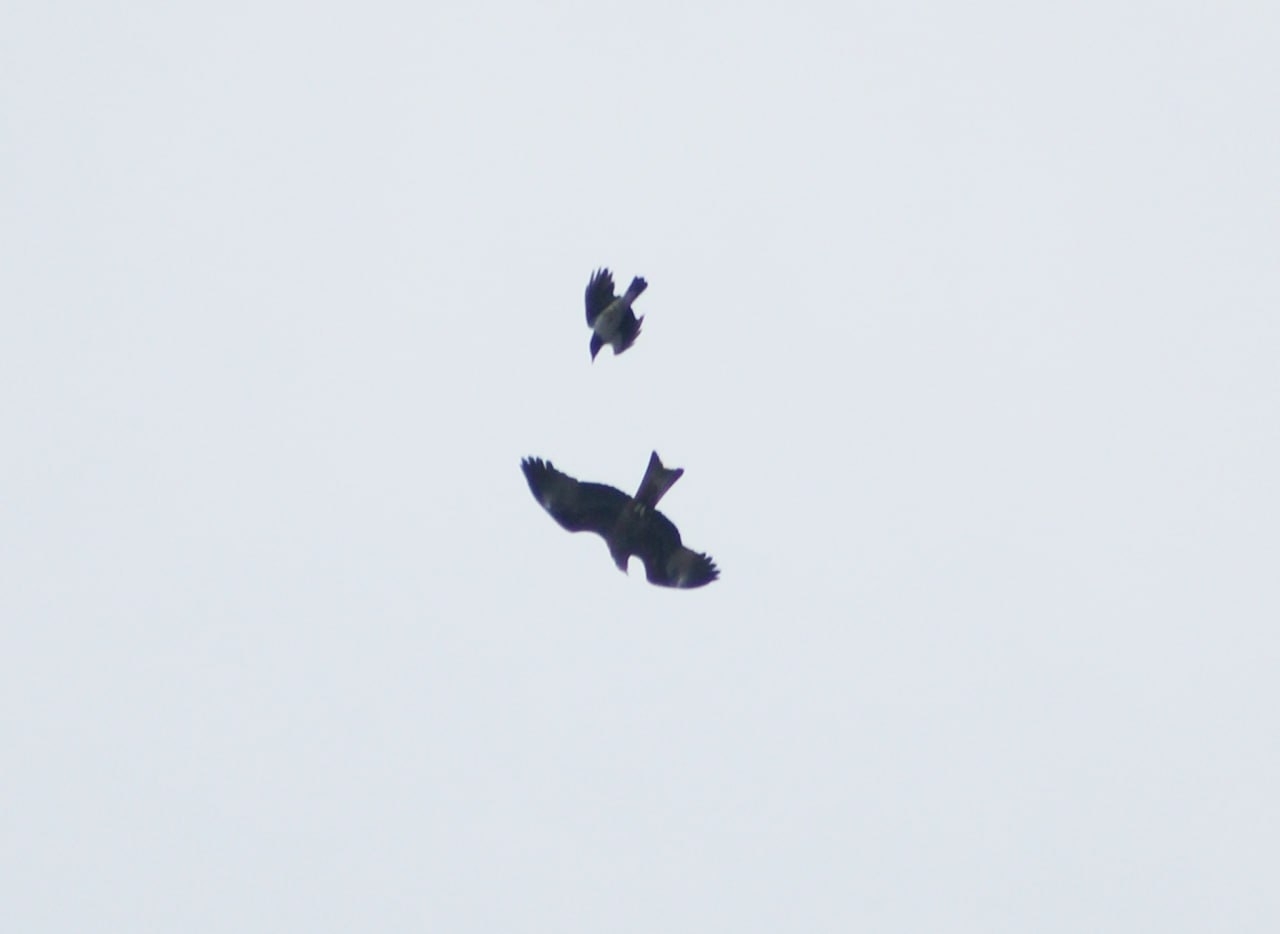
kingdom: Animalia
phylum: Chordata
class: Aves
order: Accipitriformes
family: Accipitridae
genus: Milvus
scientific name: Milvus migrans
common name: Black kite
